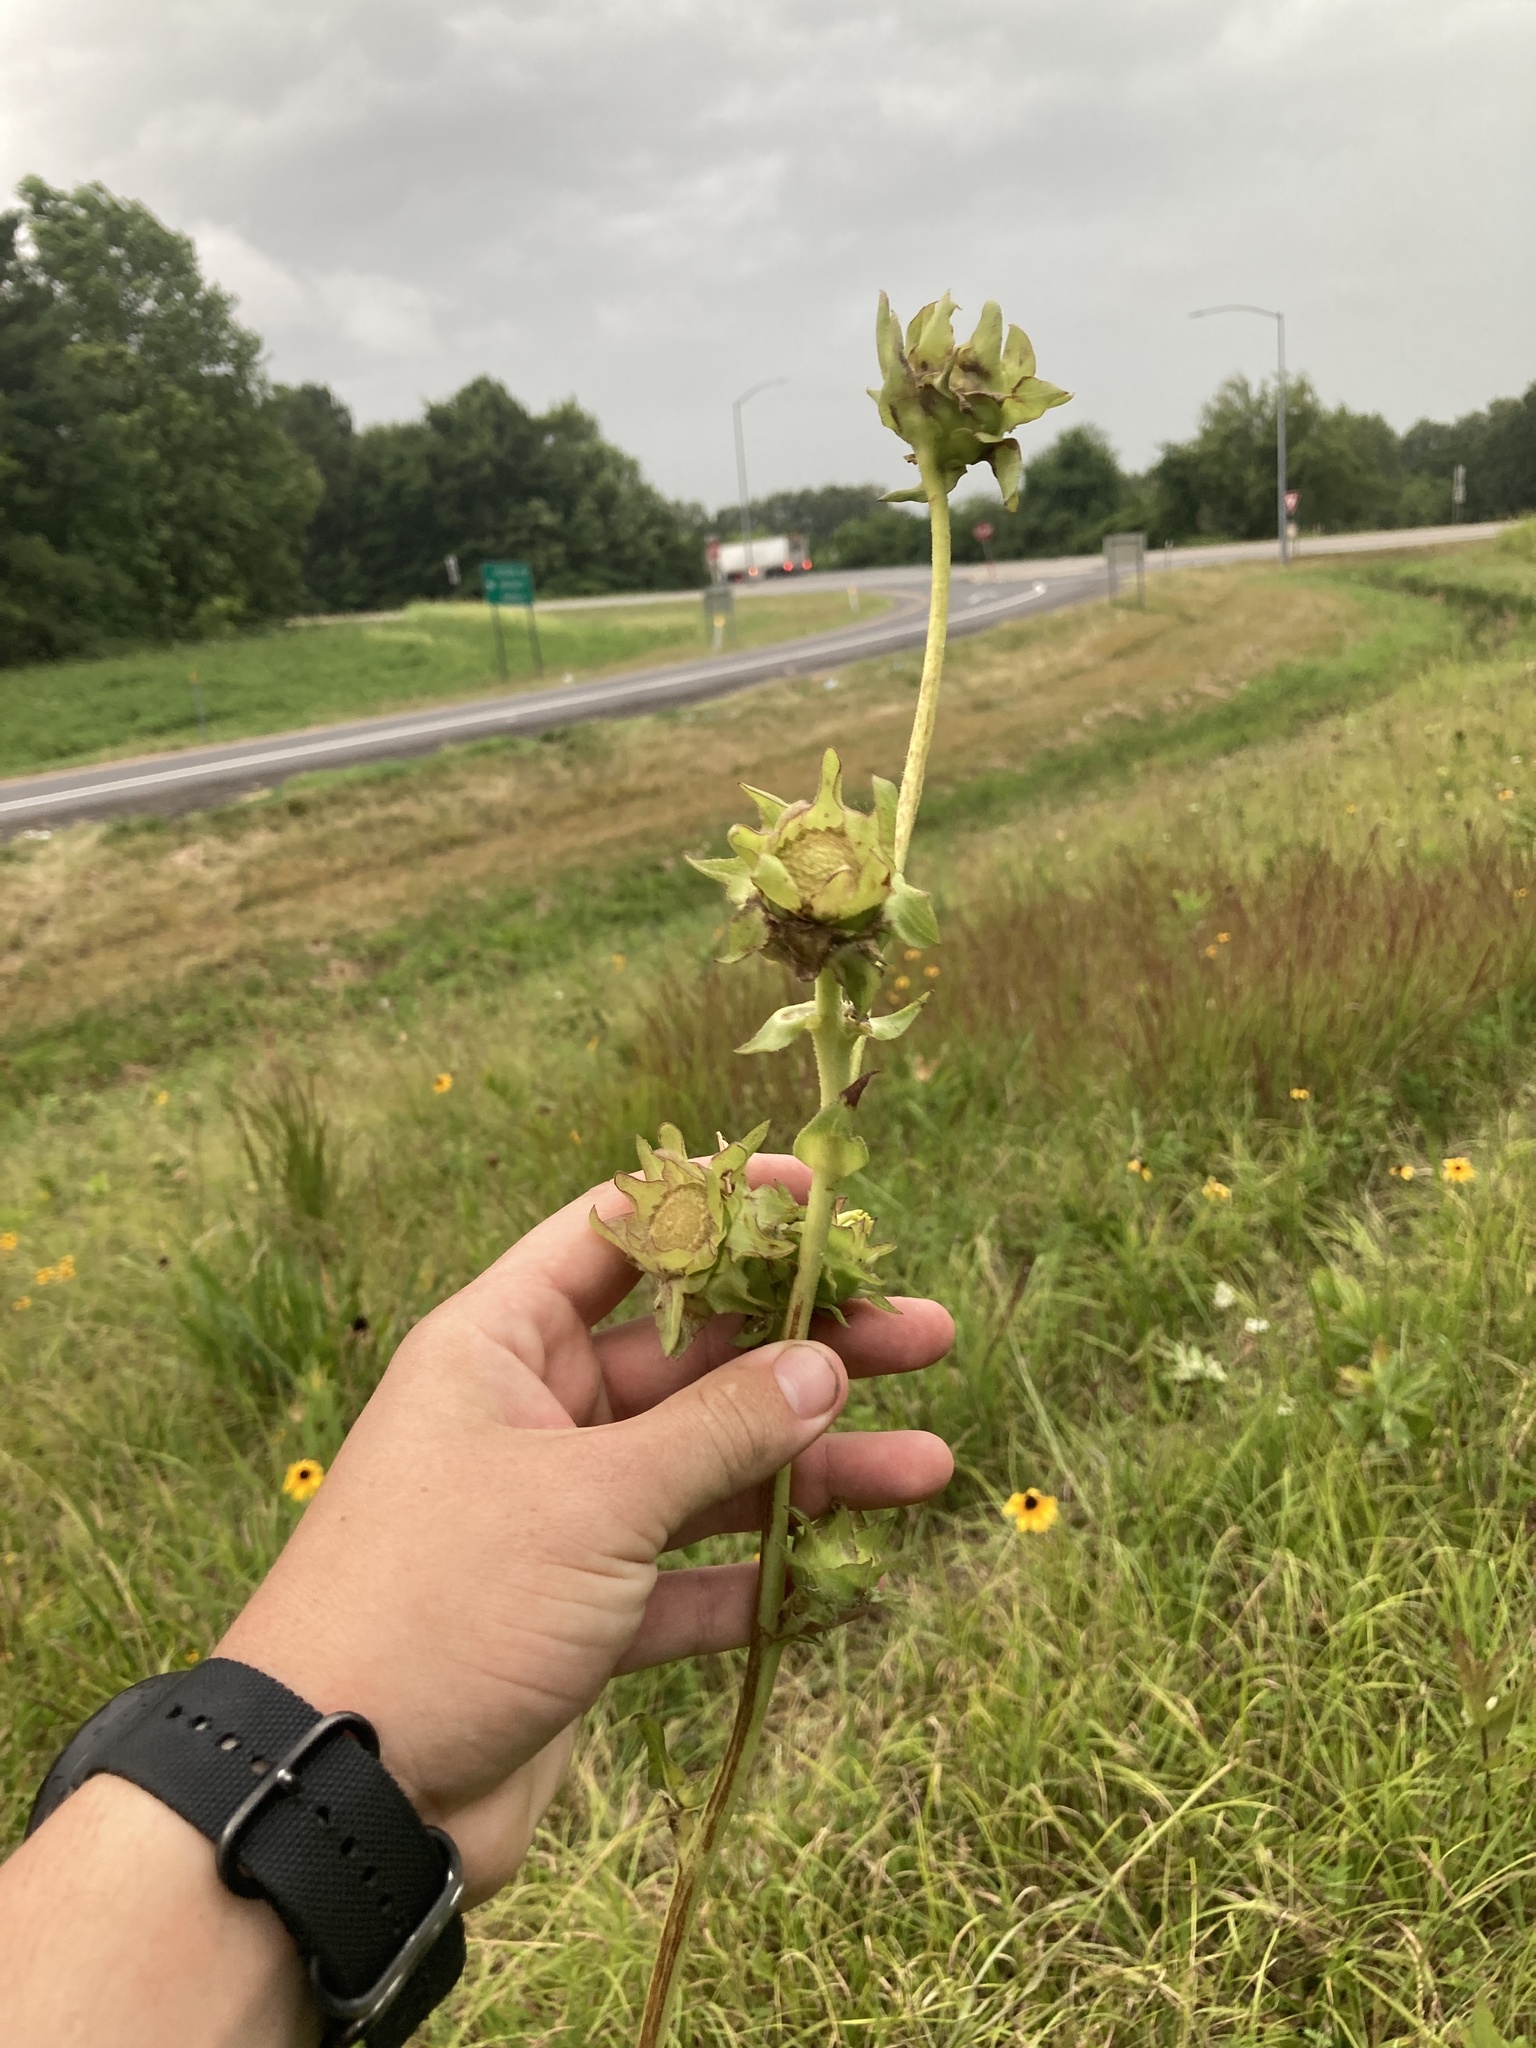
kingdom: Plantae
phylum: Tracheophyta
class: Magnoliopsida
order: Asterales
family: Asteraceae
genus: Silphium
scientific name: Silphium laciniatum
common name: Polarplant
